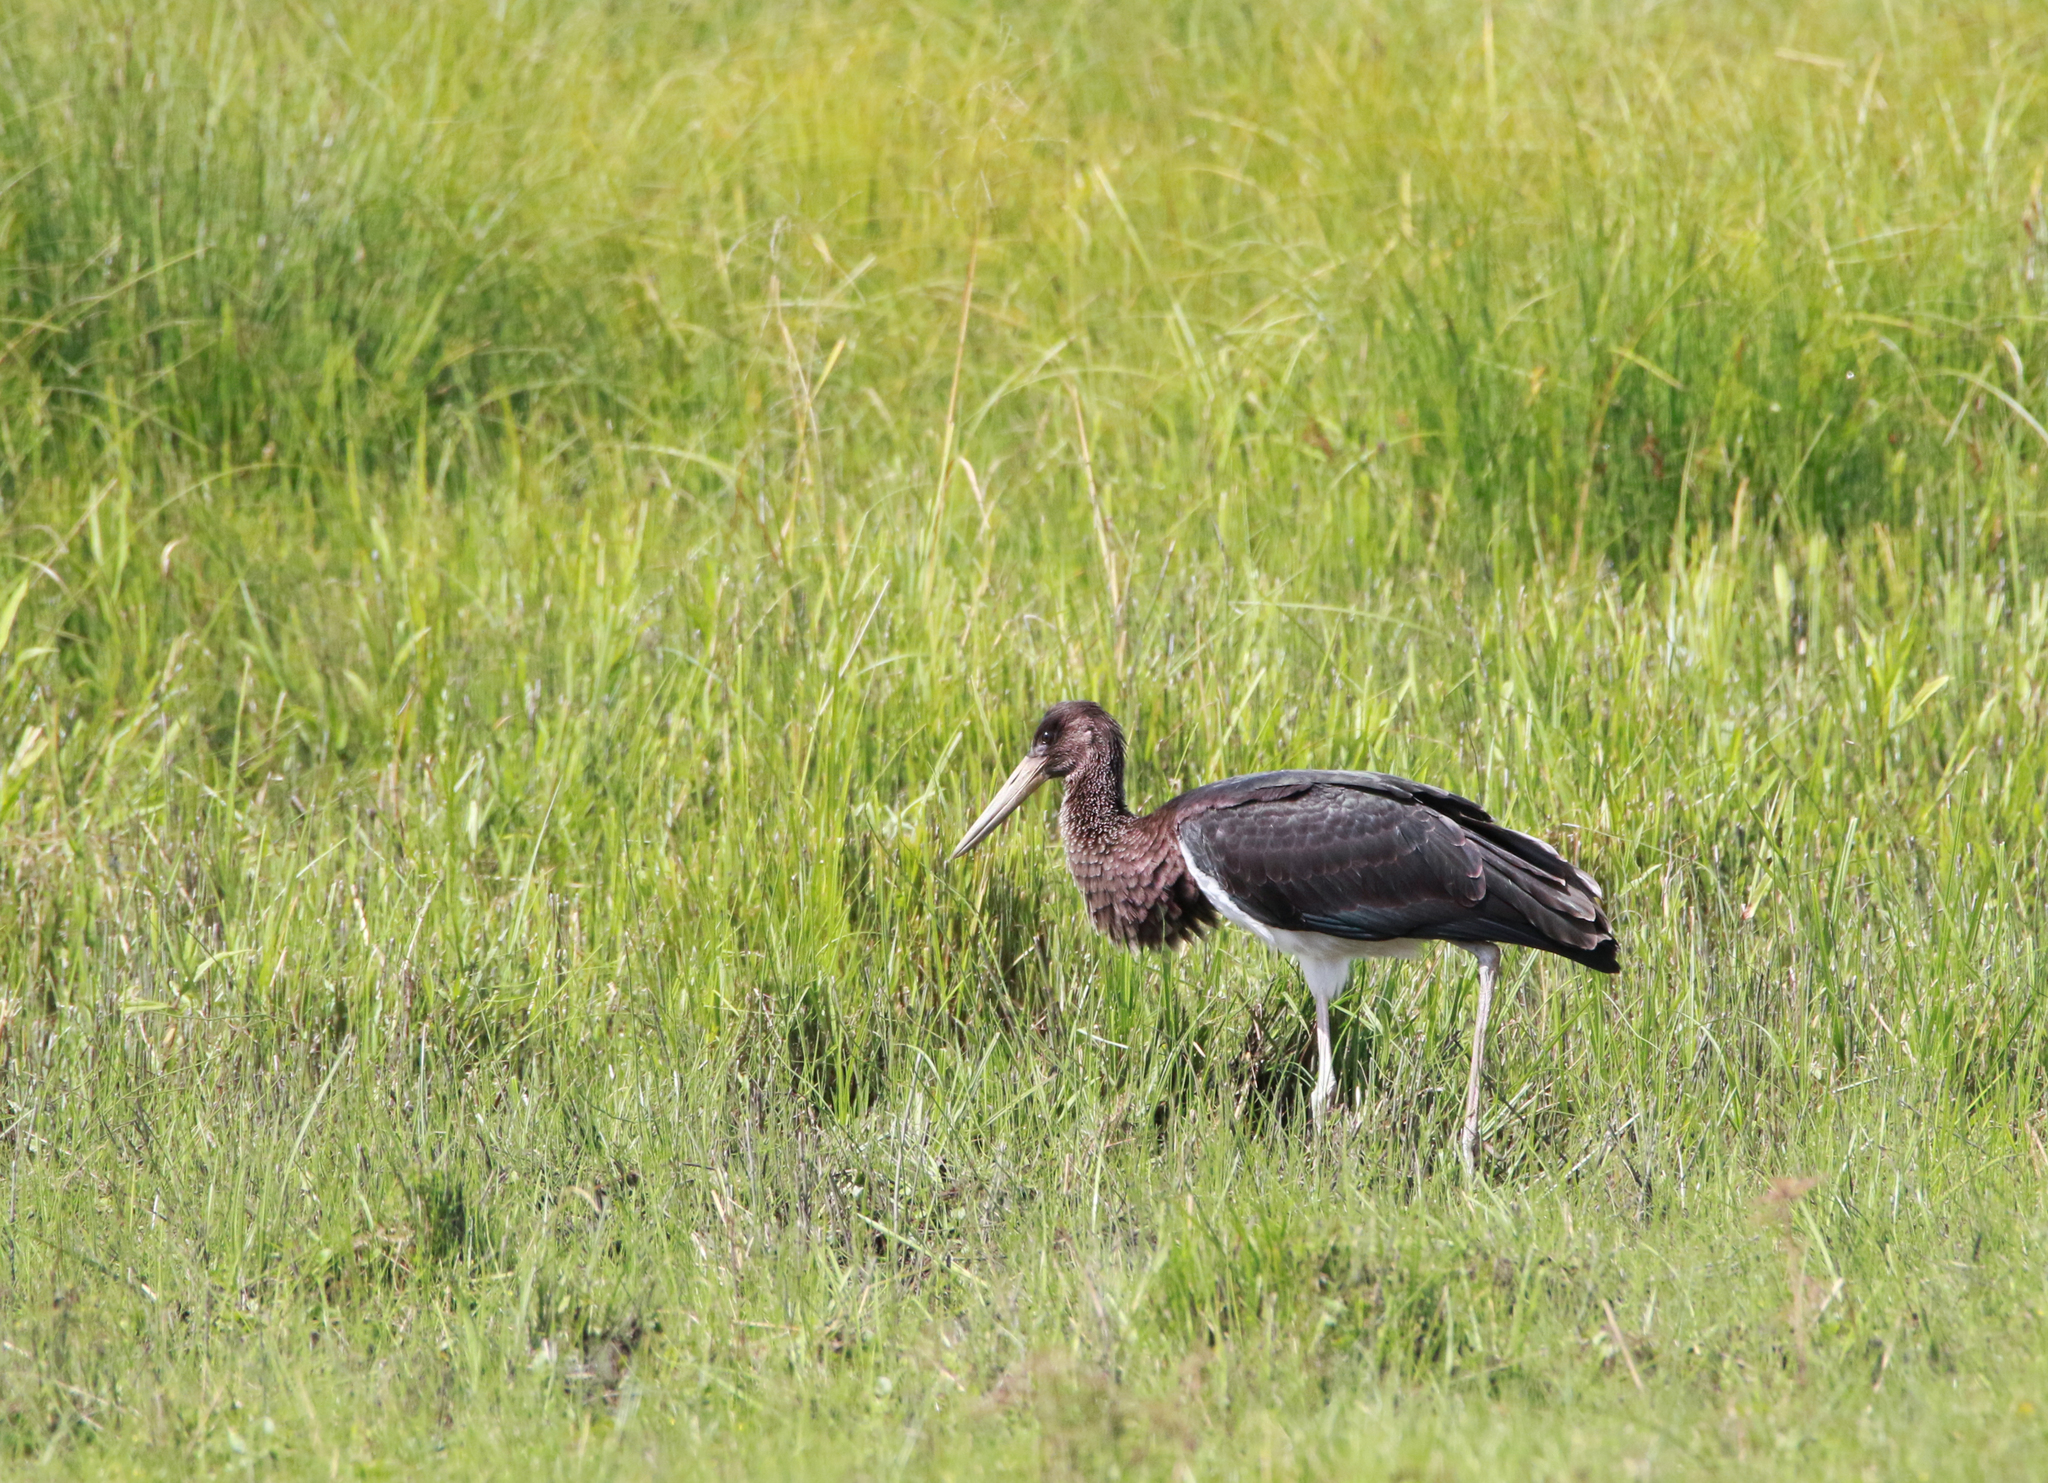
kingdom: Animalia
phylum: Chordata
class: Aves
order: Ciconiiformes
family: Ciconiidae
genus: Ciconia
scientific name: Ciconia nigra
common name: Black stork
